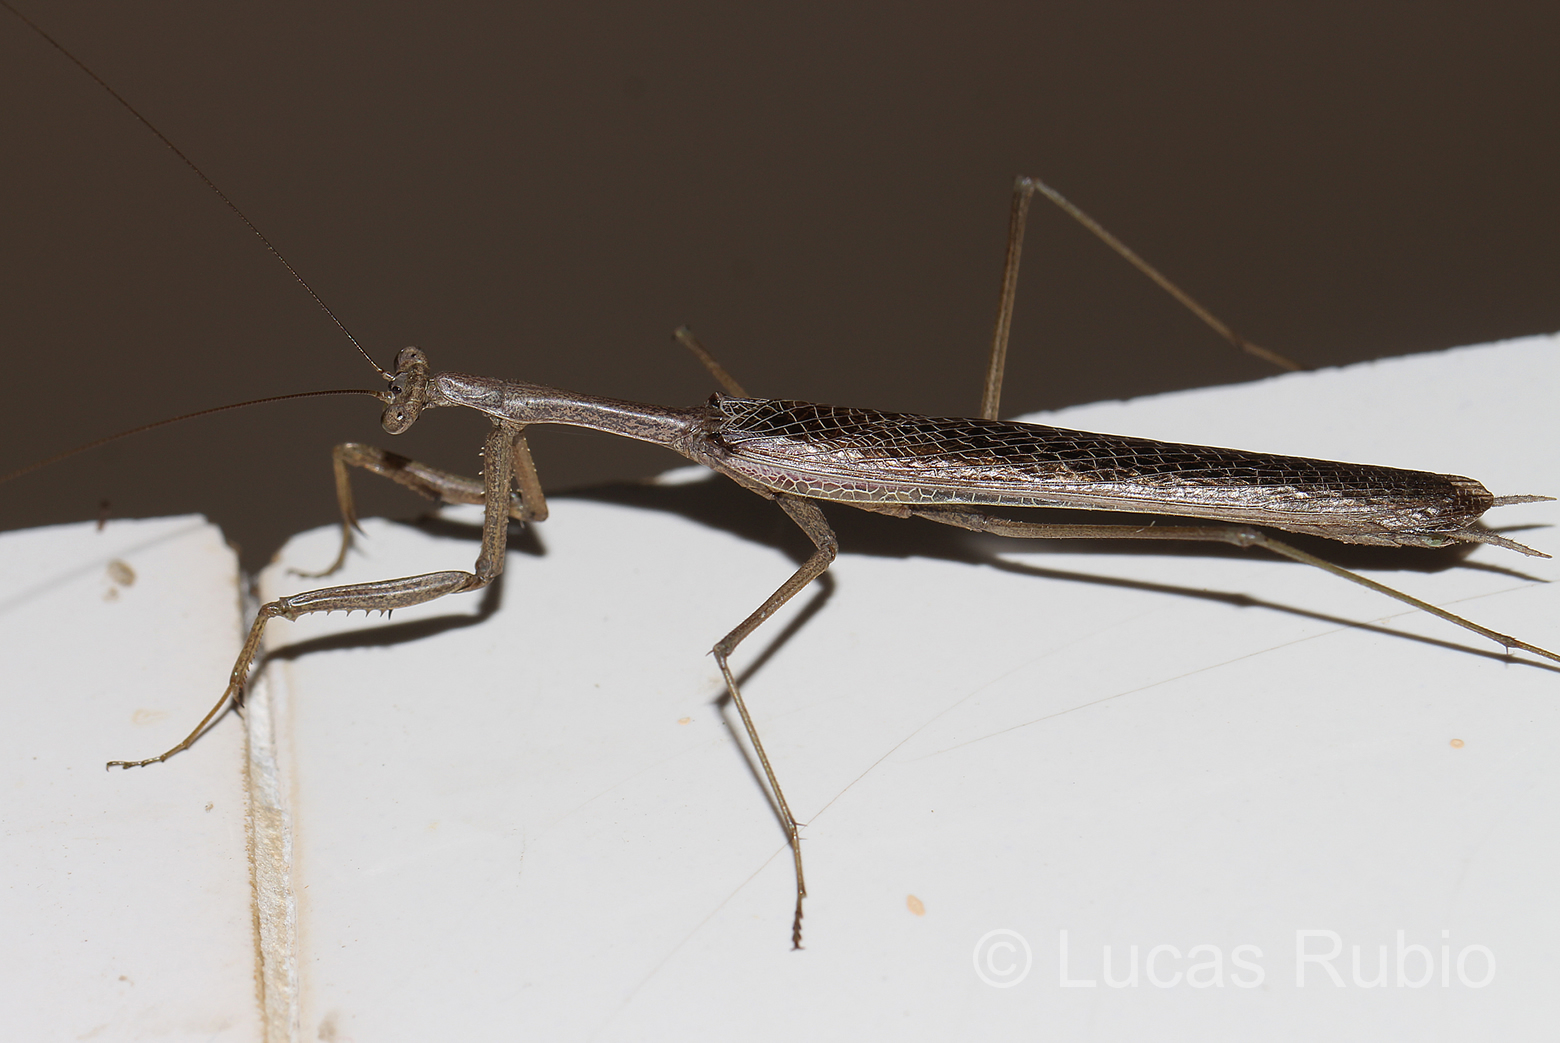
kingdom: Animalia
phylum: Arthropoda
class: Insecta
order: Mantodea
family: Coptopterygidae
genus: Coptopteryx
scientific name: Coptopteryx gayi
